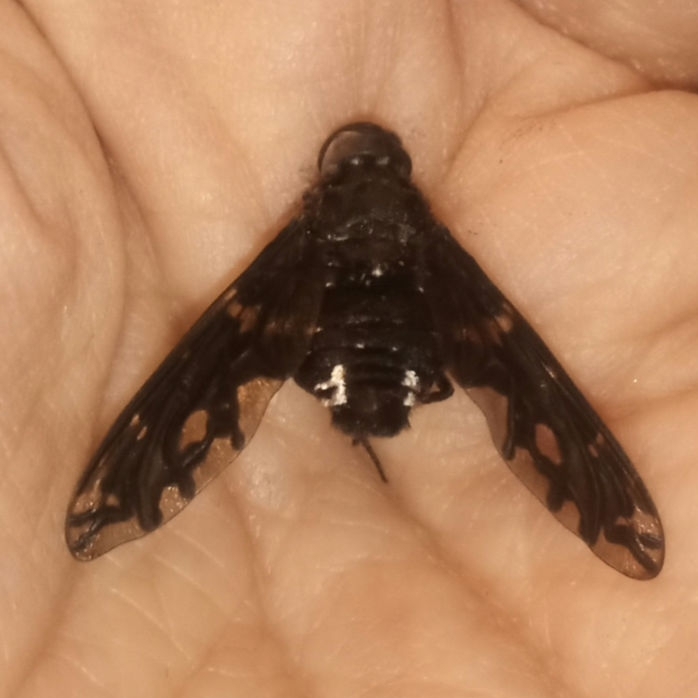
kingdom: Animalia
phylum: Arthropoda
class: Insecta
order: Diptera
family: Bombyliidae
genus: Xenox
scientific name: Xenox tigrinus
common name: Tiger bee fly
